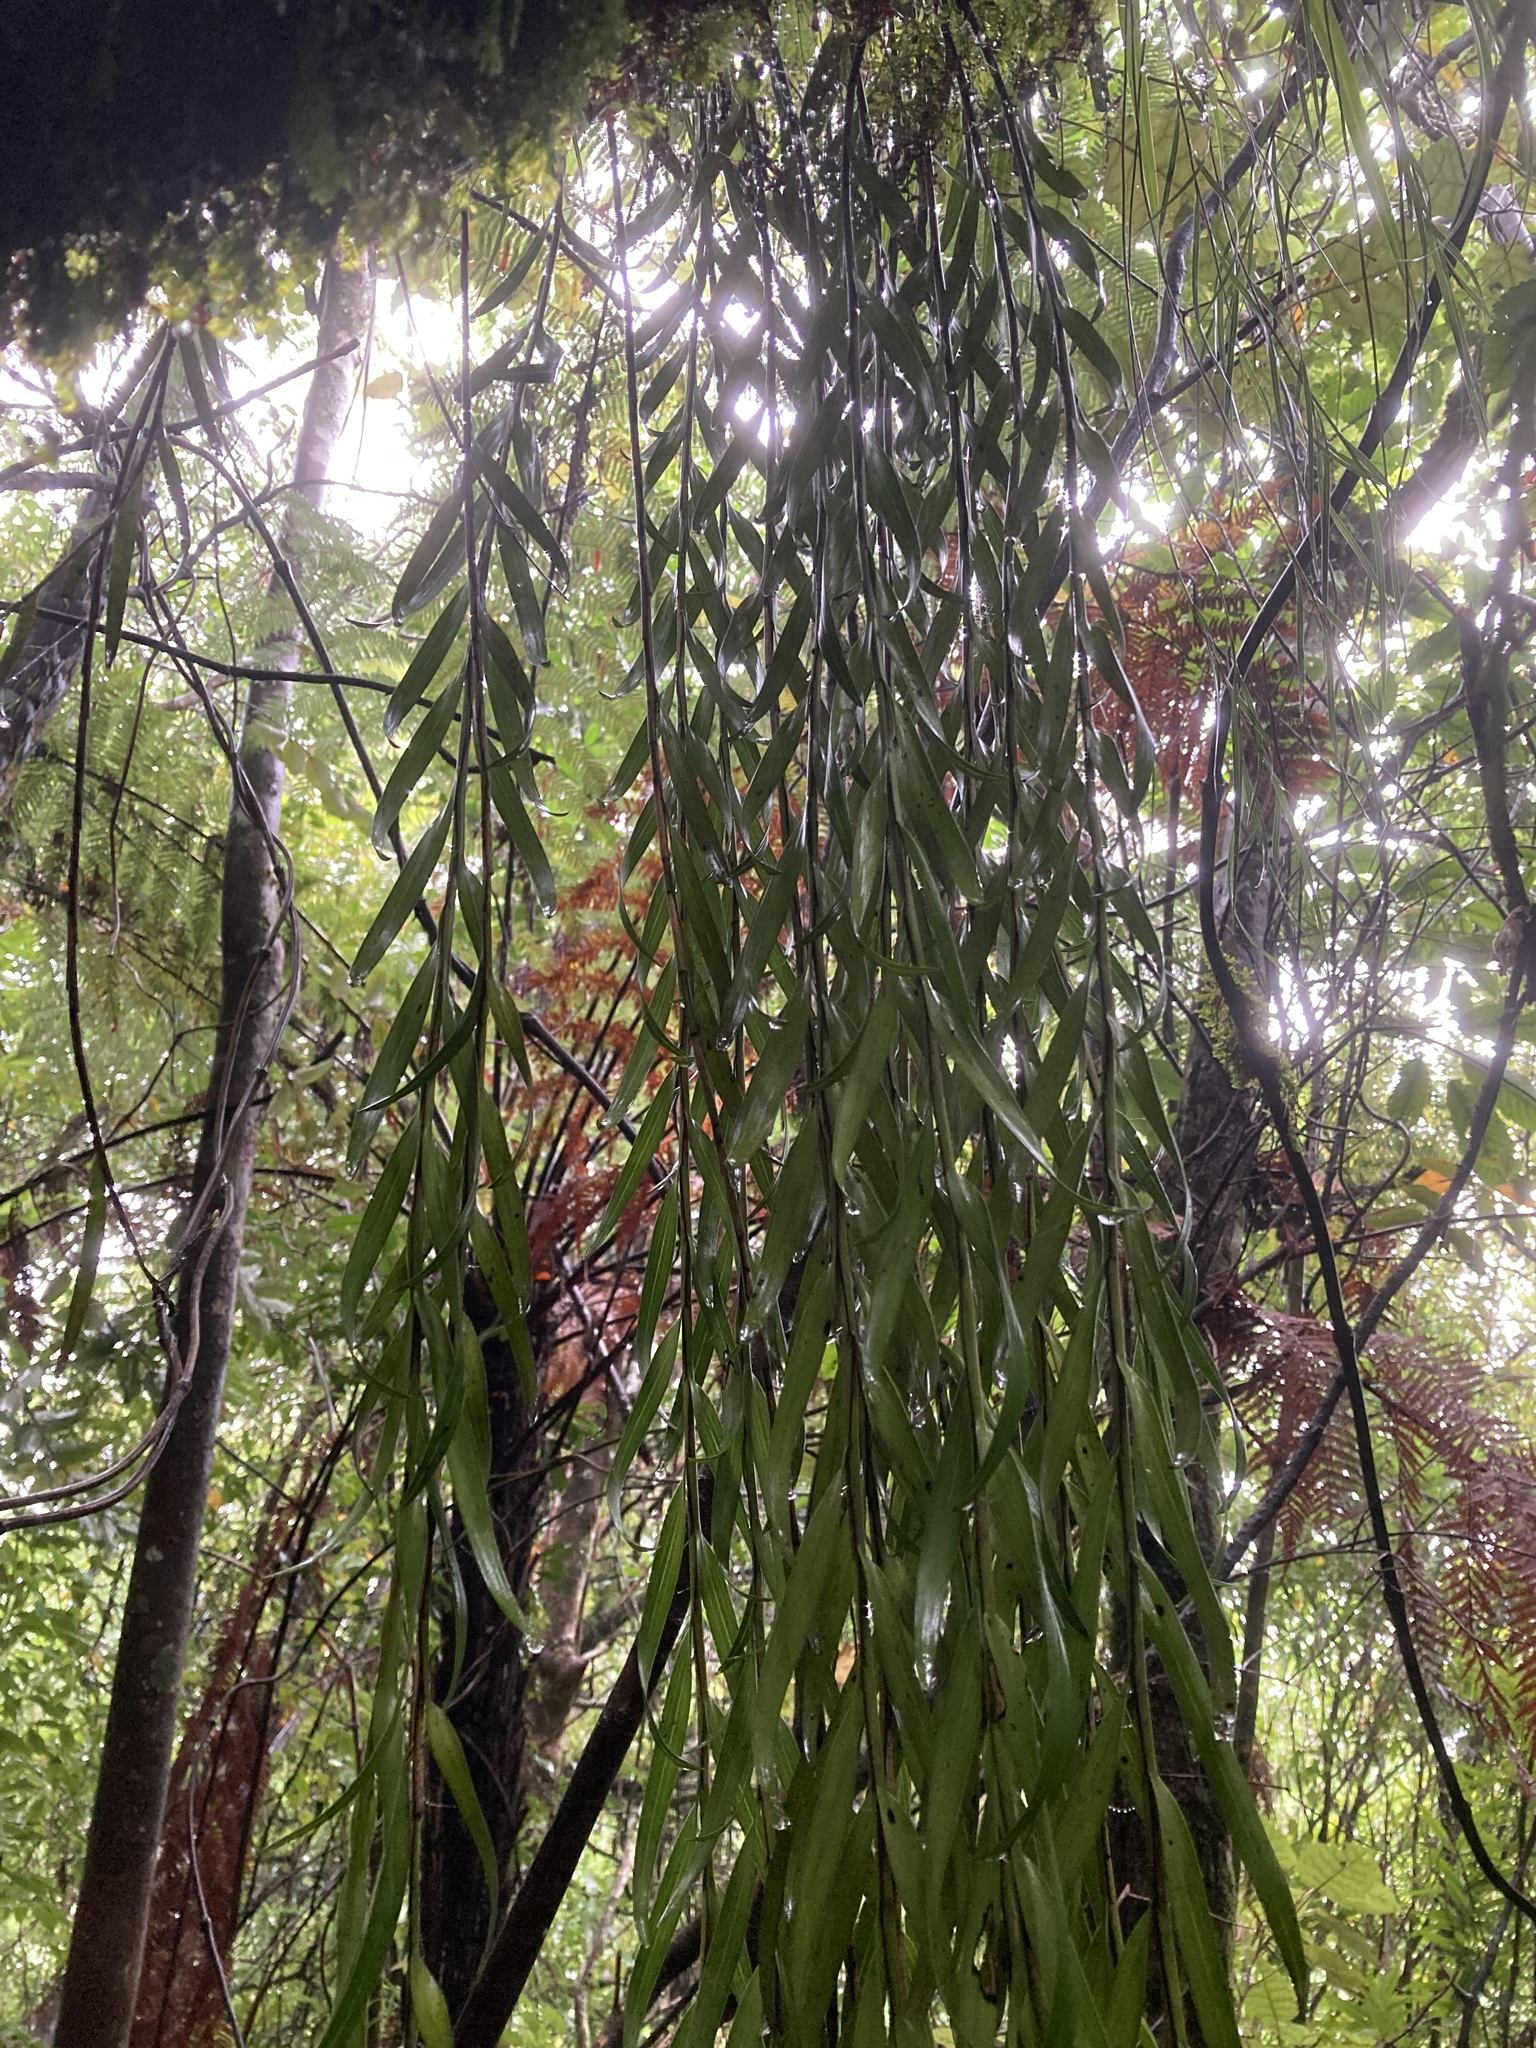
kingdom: Plantae
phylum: Tracheophyta
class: Liliopsida
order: Asparagales
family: Orchidaceae
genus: Earina
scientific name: Earina autumnalis
